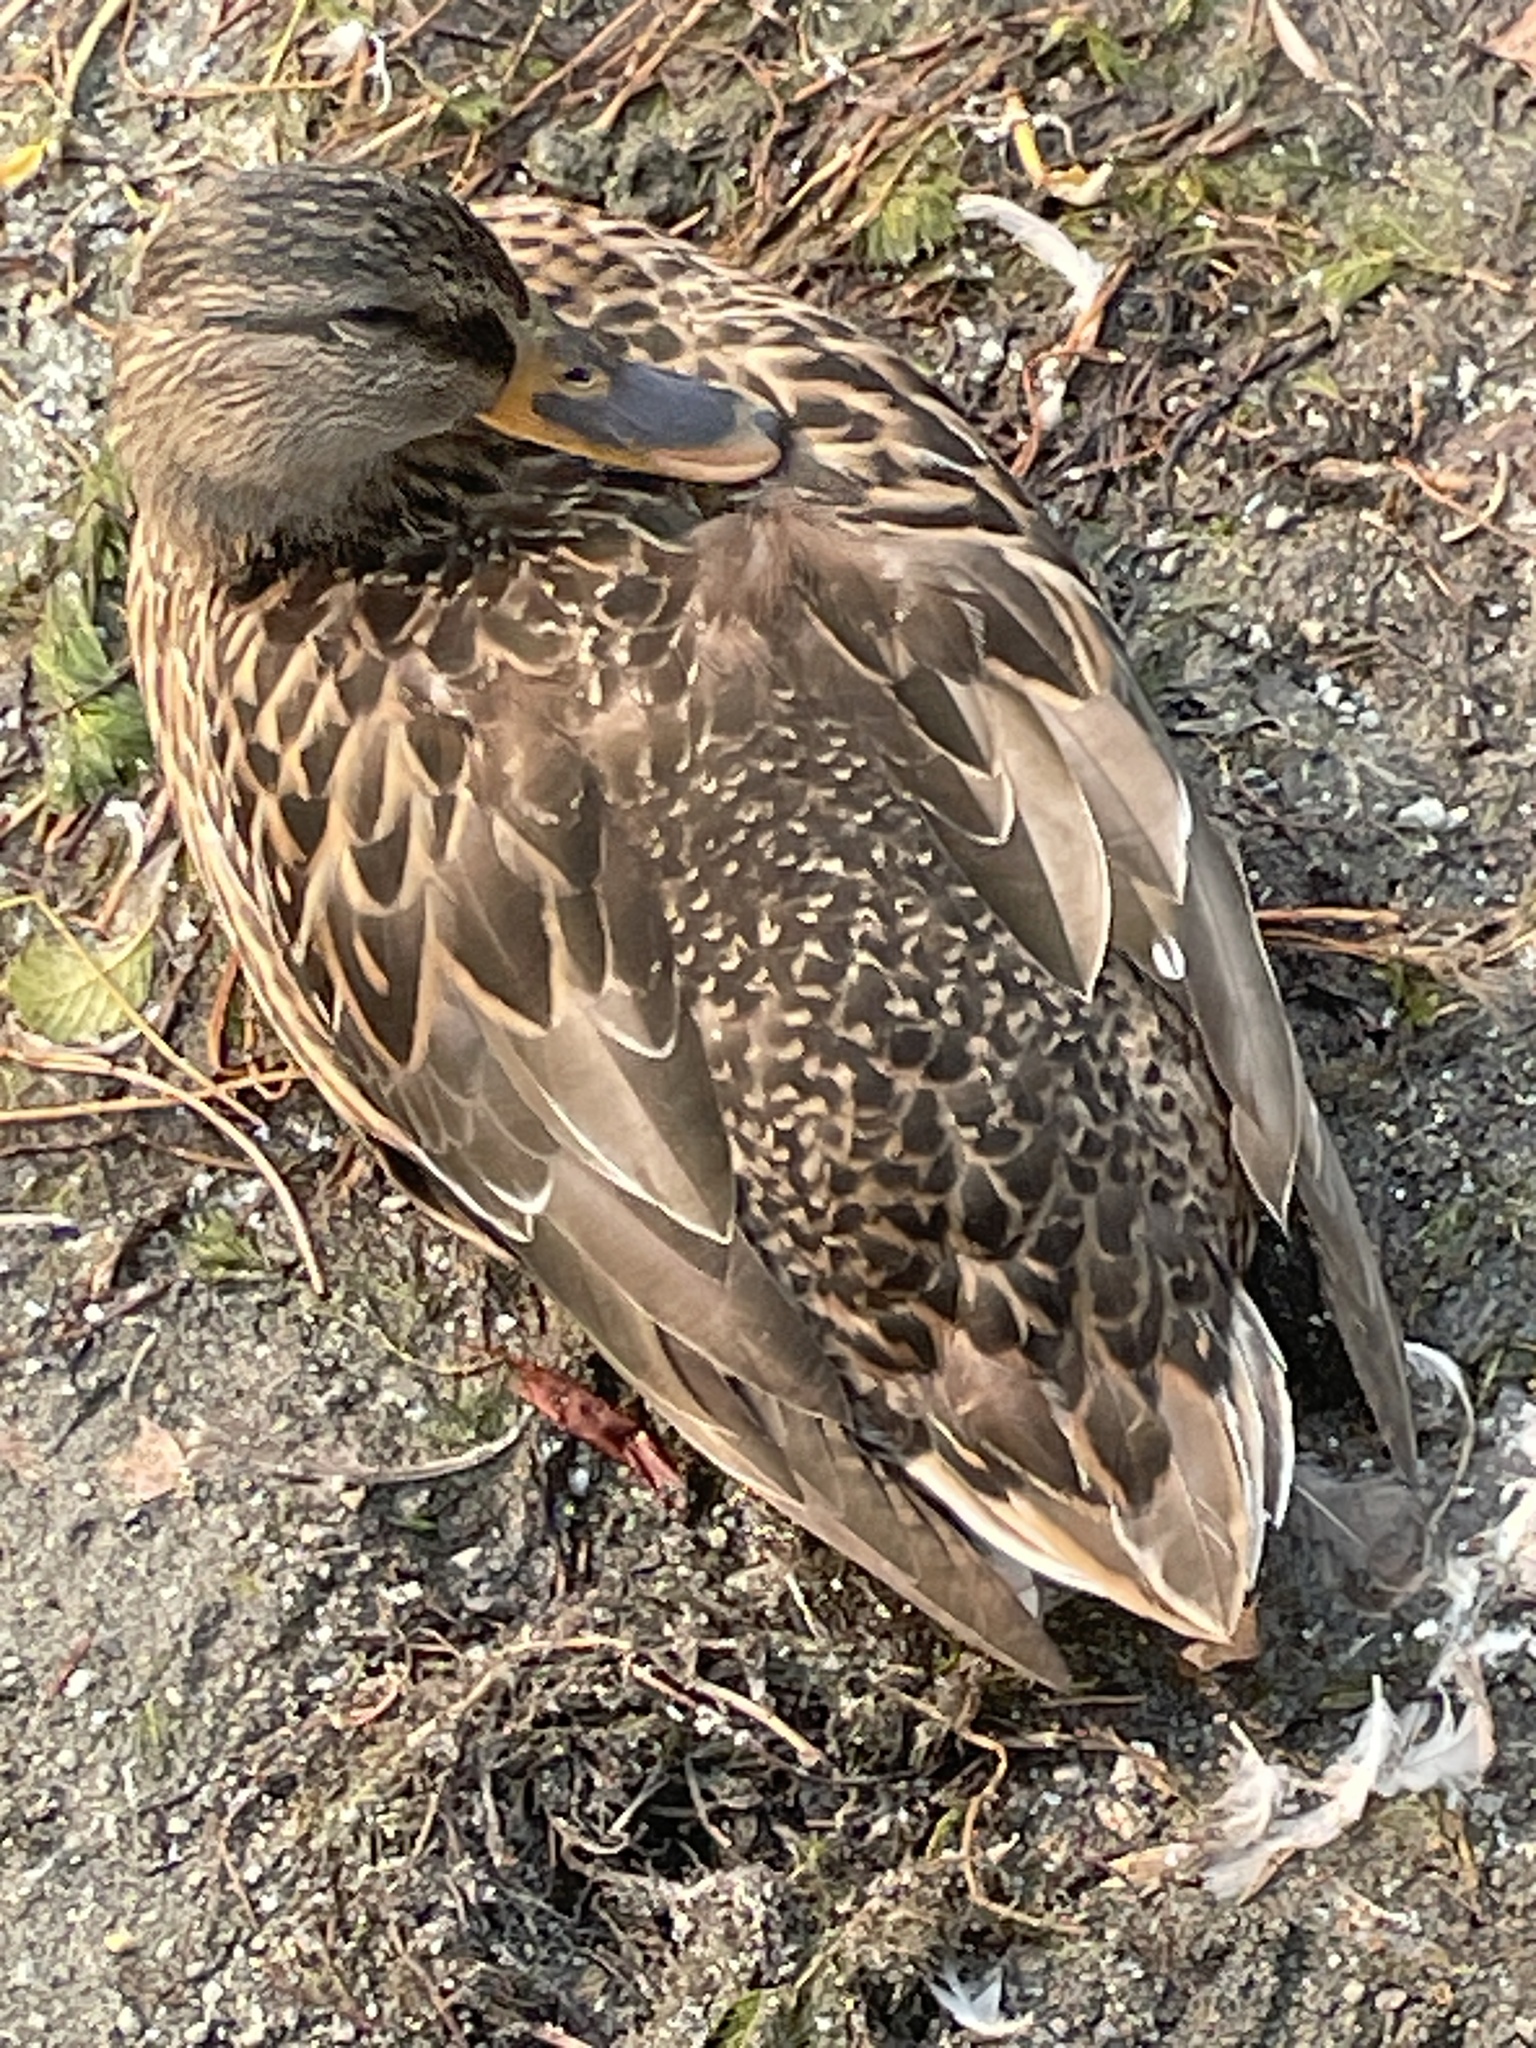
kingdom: Animalia
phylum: Chordata
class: Aves
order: Anseriformes
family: Anatidae
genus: Anas
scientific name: Anas platyrhynchos
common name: Mallard
